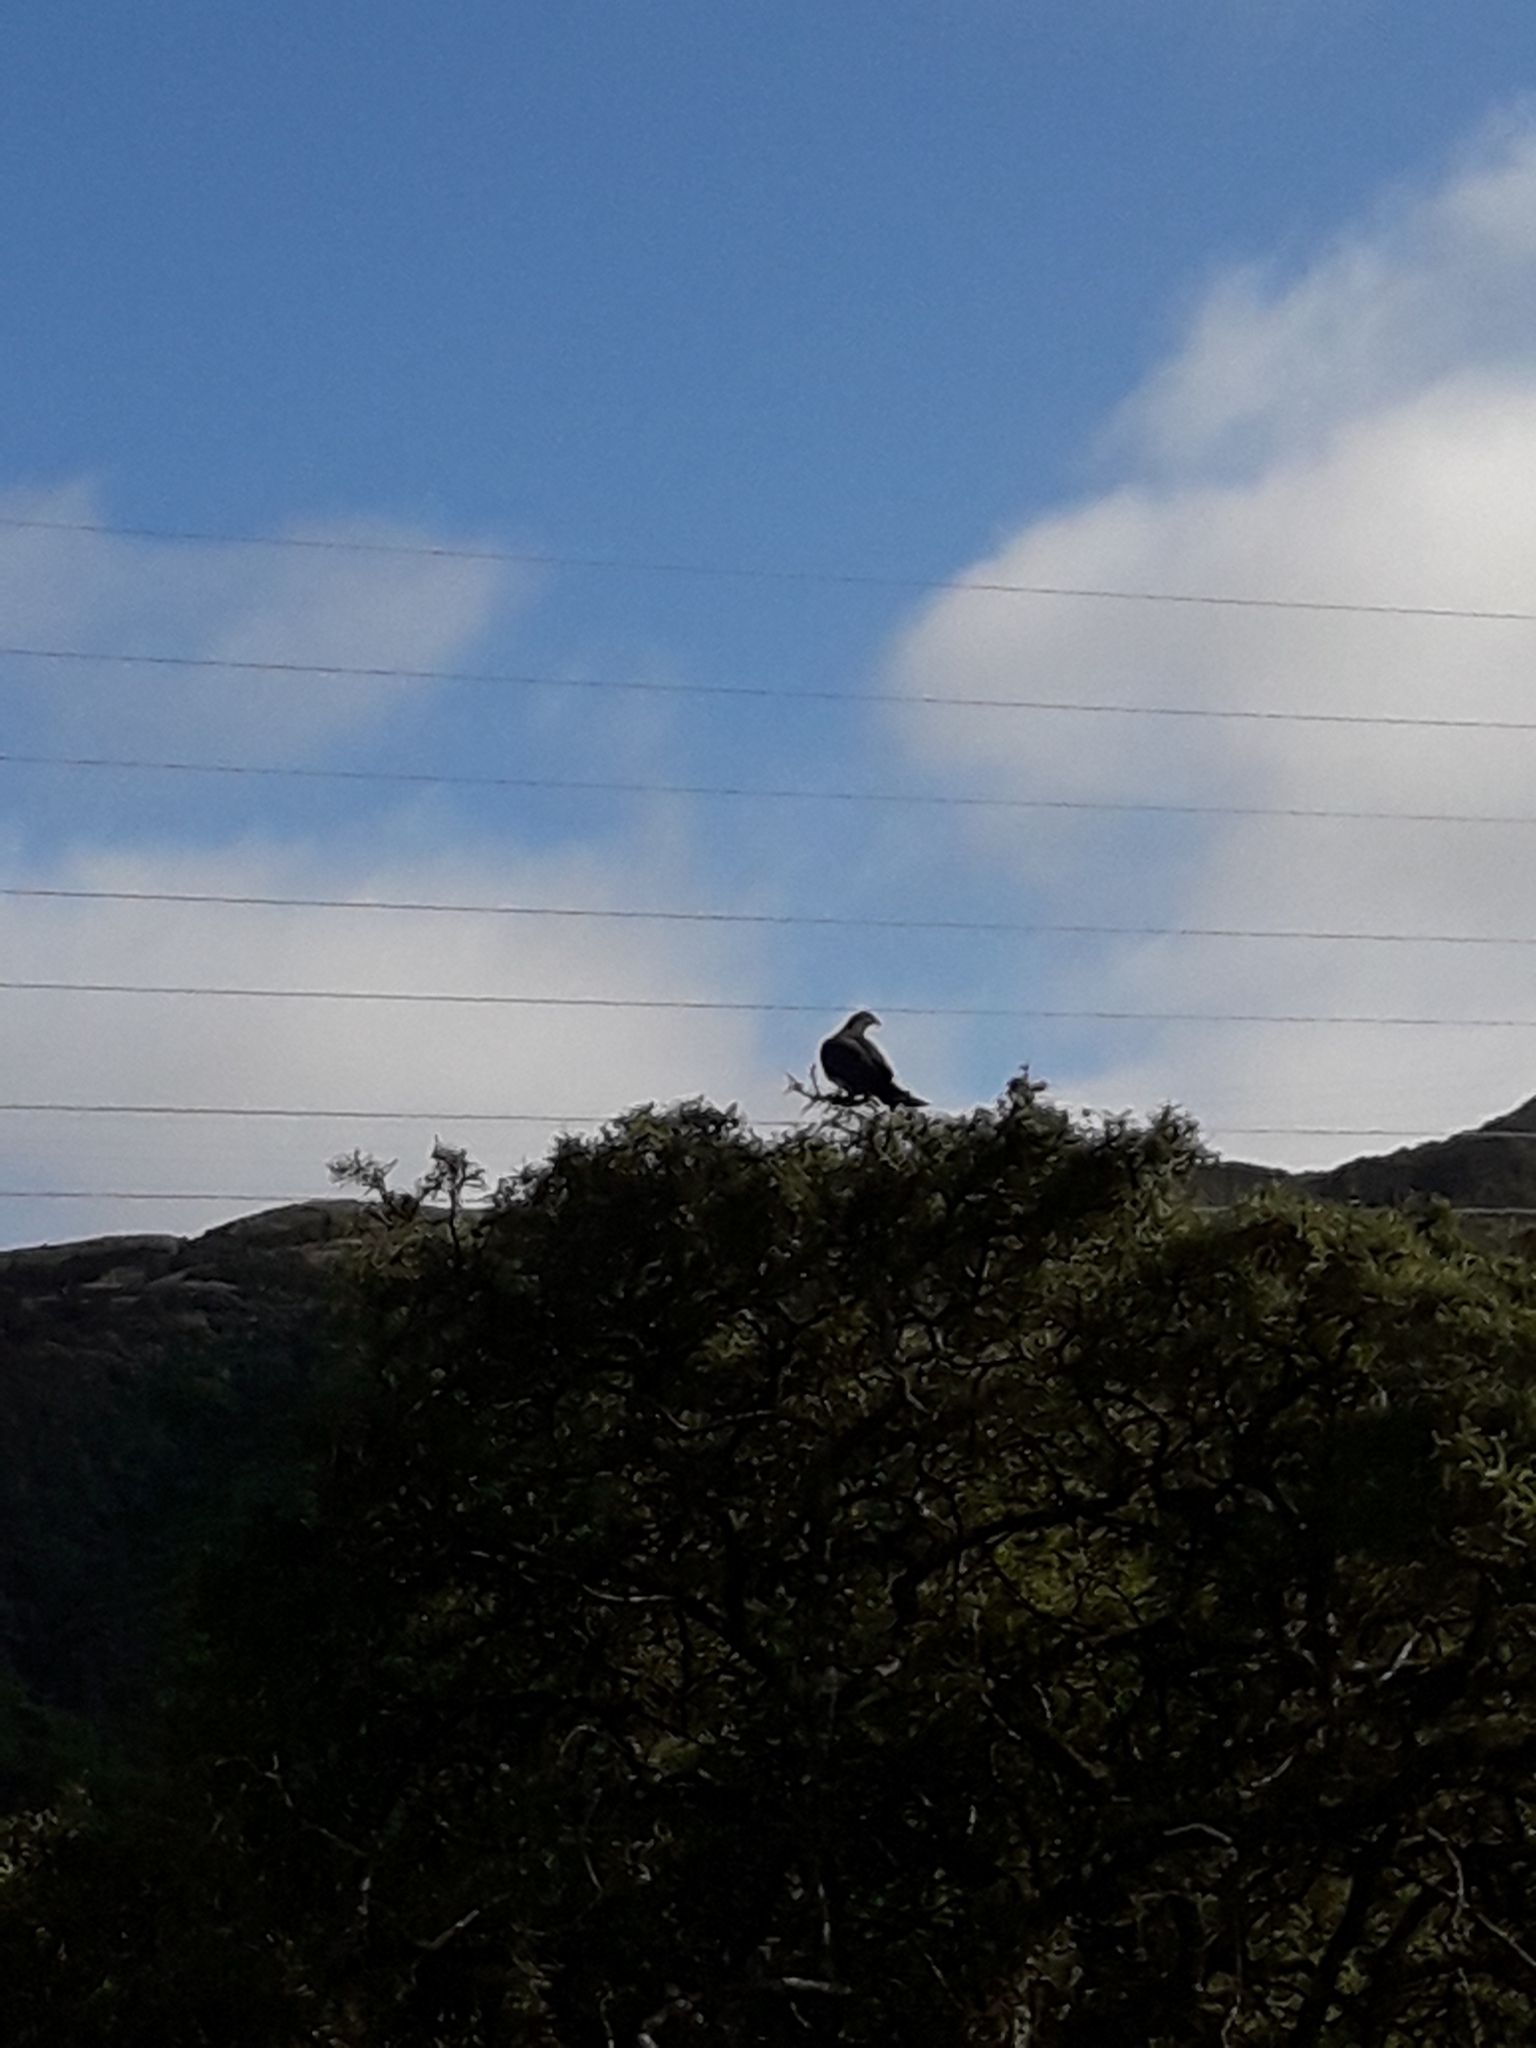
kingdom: Animalia
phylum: Chordata
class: Aves
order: Columbiformes
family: Columbidae
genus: Hemiphaga
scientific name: Hemiphaga novaeseelandiae
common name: New zealand pigeon
